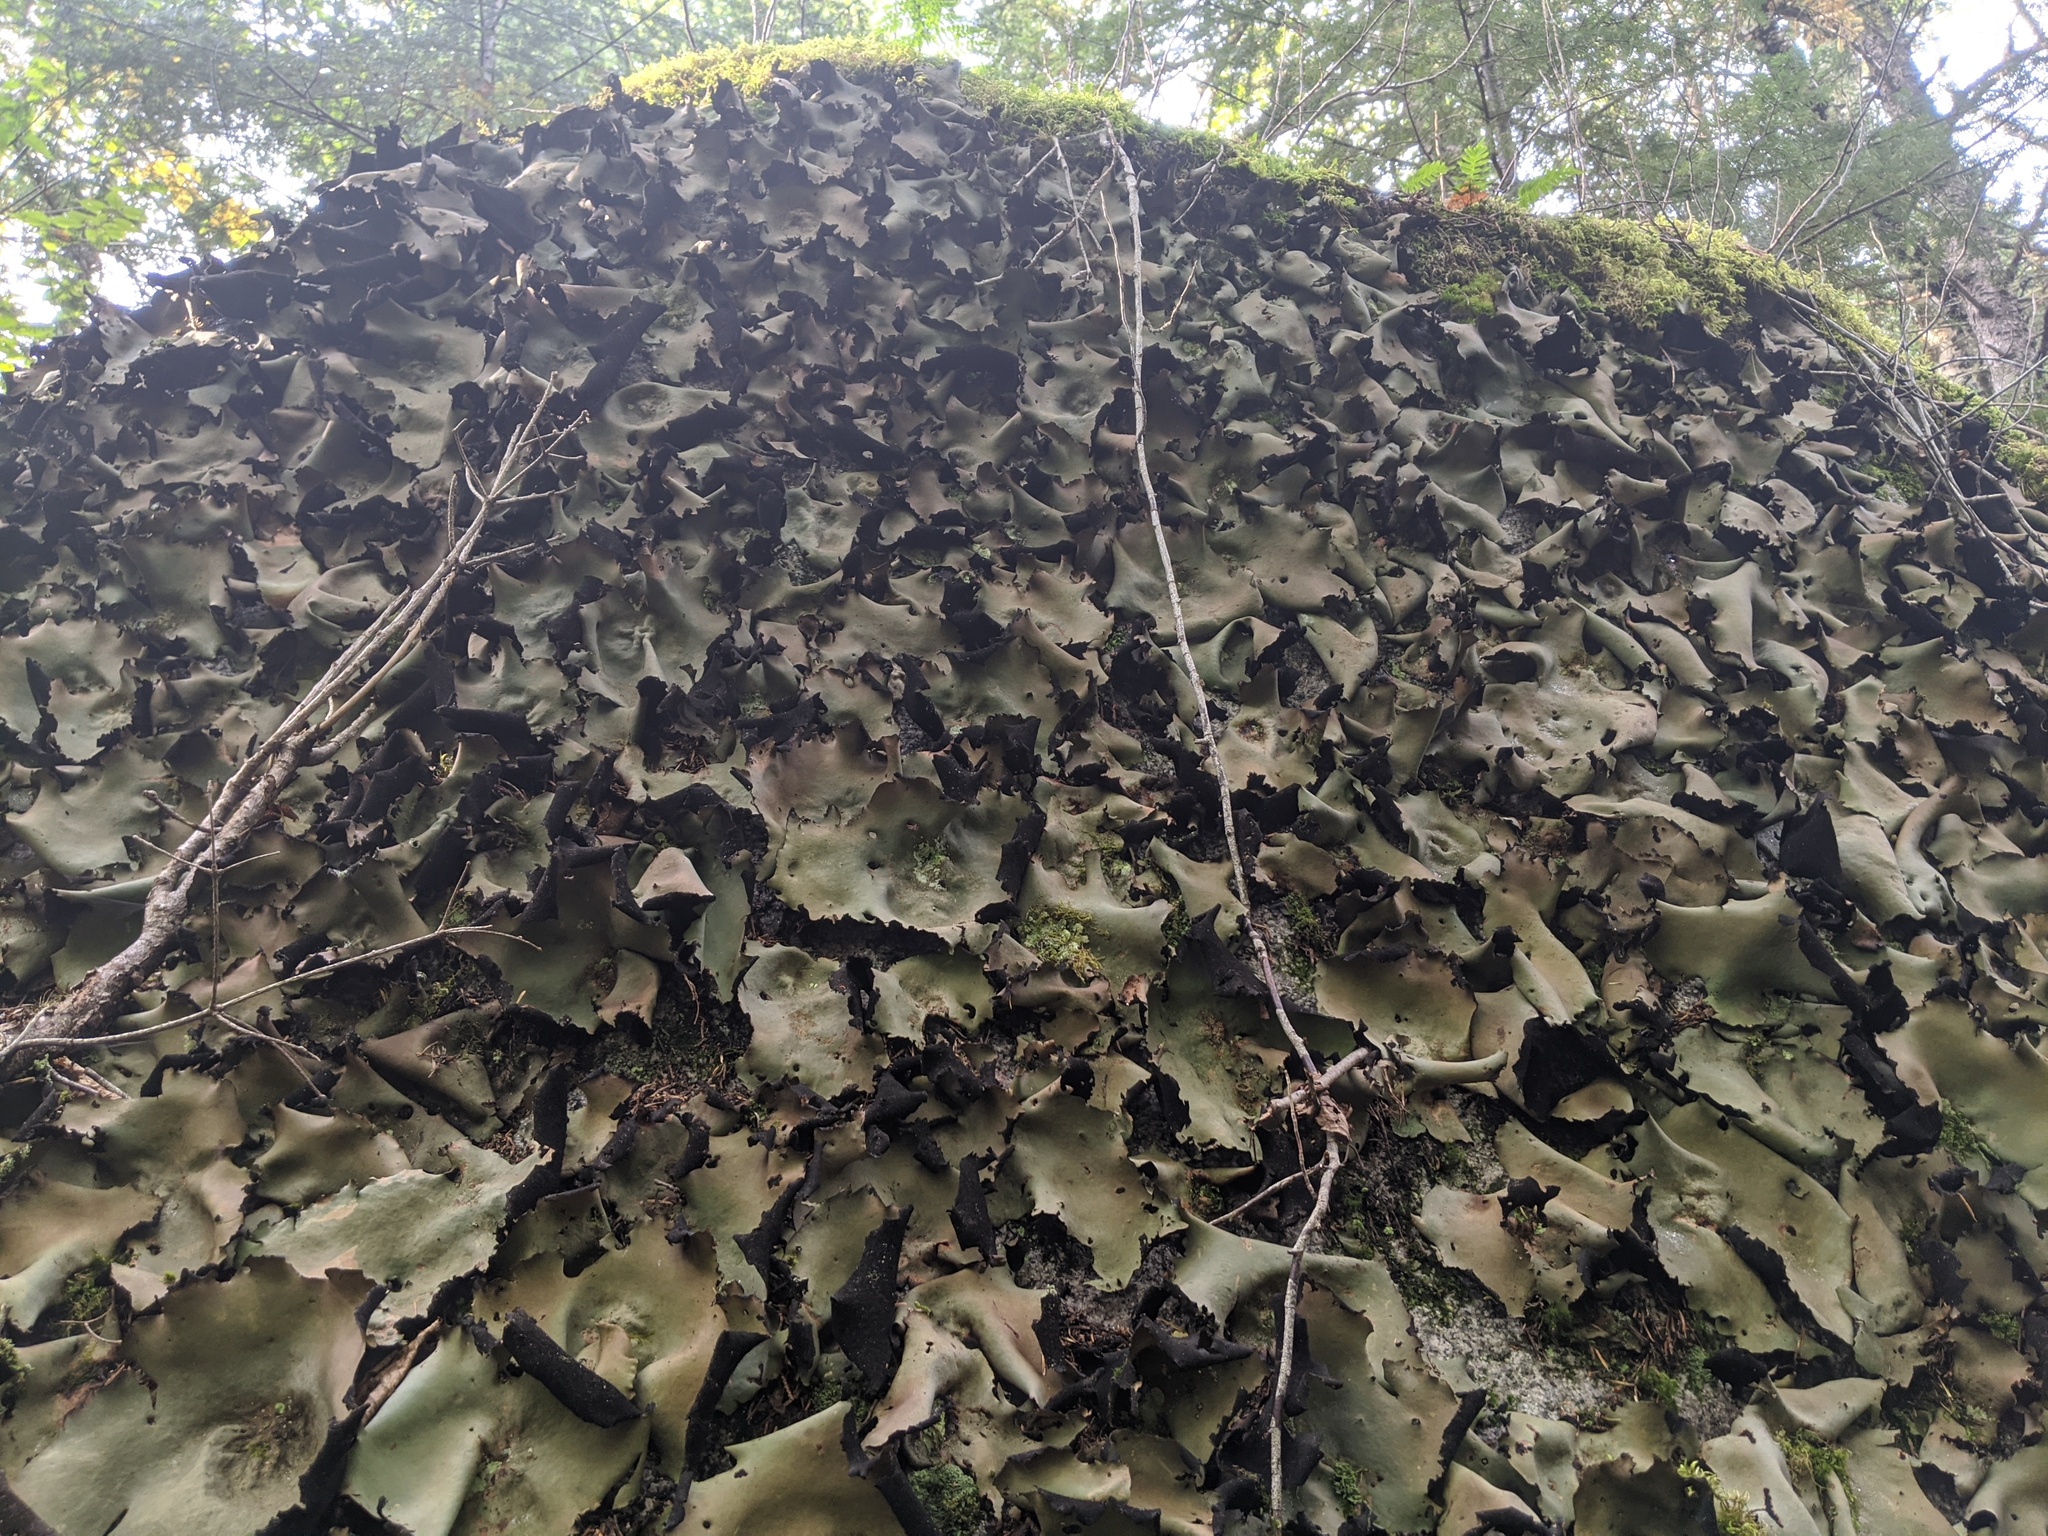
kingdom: Fungi
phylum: Ascomycota
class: Lecanoromycetes
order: Umbilicariales
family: Umbilicariaceae
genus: Umbilicaria
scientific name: Umbilicaria mammulata
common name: Smooth rock tripe
